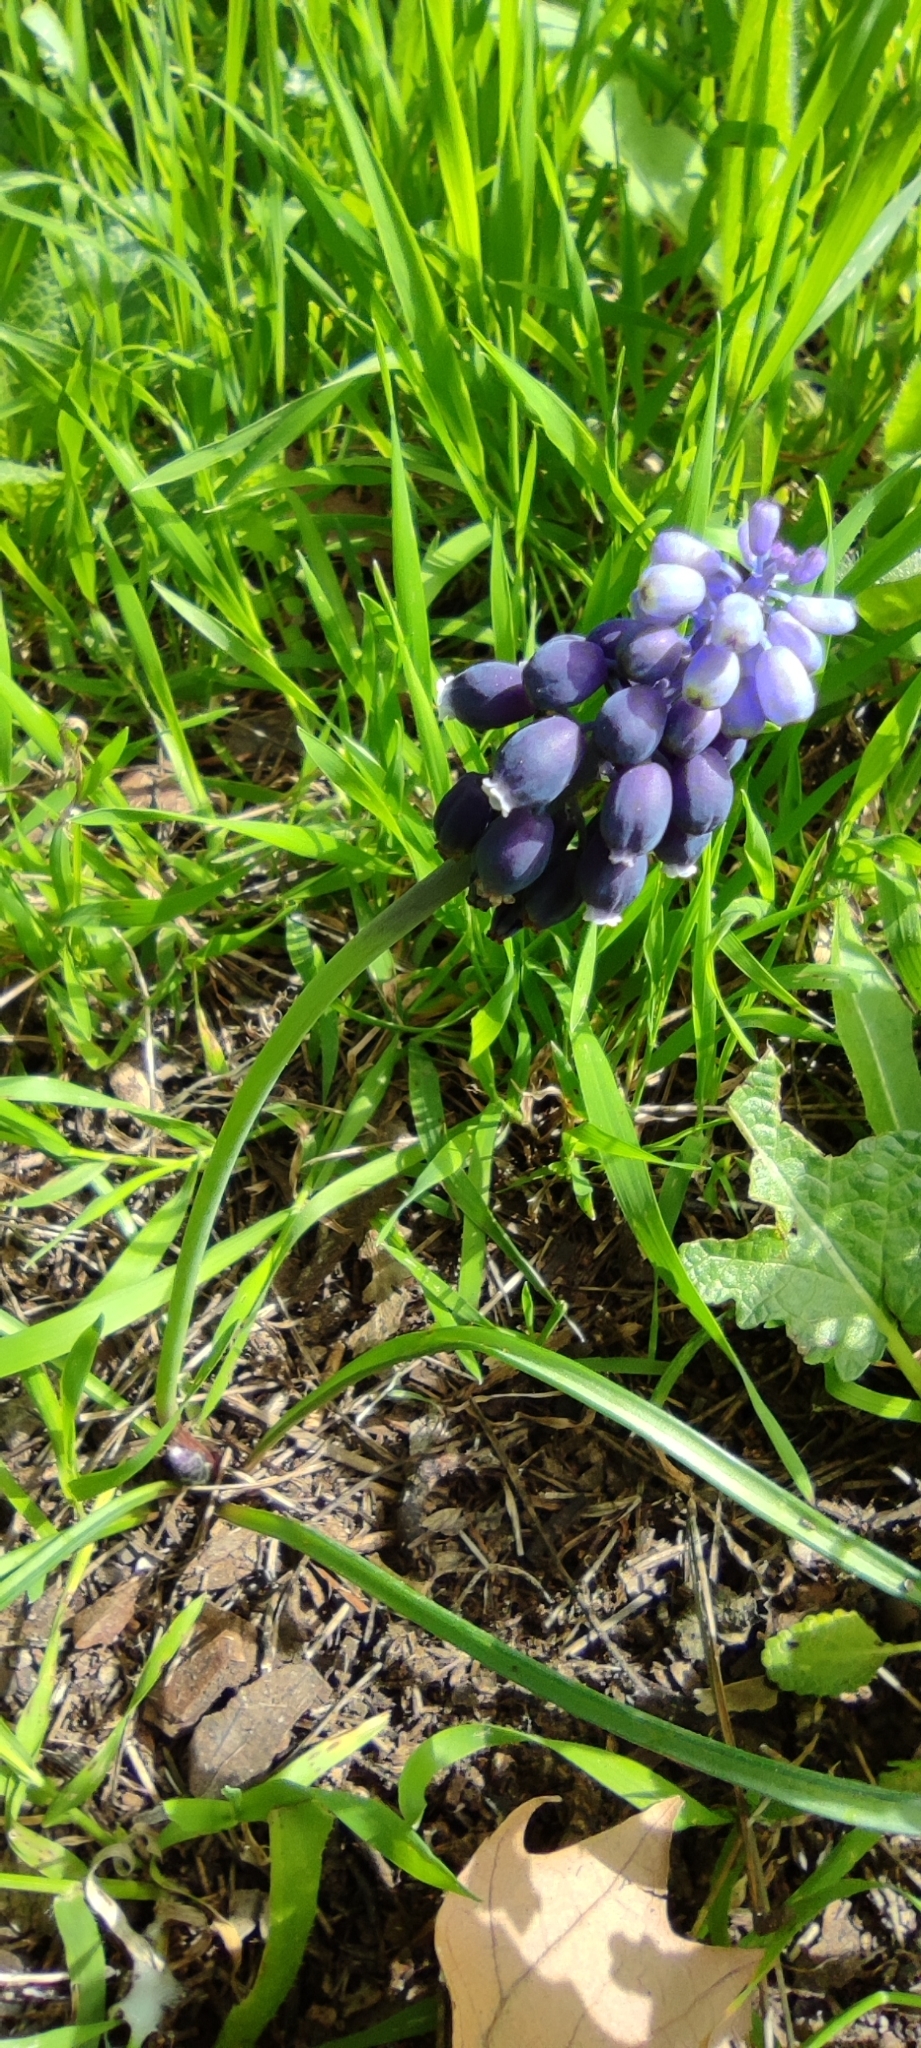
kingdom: Plantae
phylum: Tracheophyta
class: Liliopsida
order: Asparagales
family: Asparagaceae
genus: Muscari
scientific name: Muscari neglectum
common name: Grape-hyacinth
